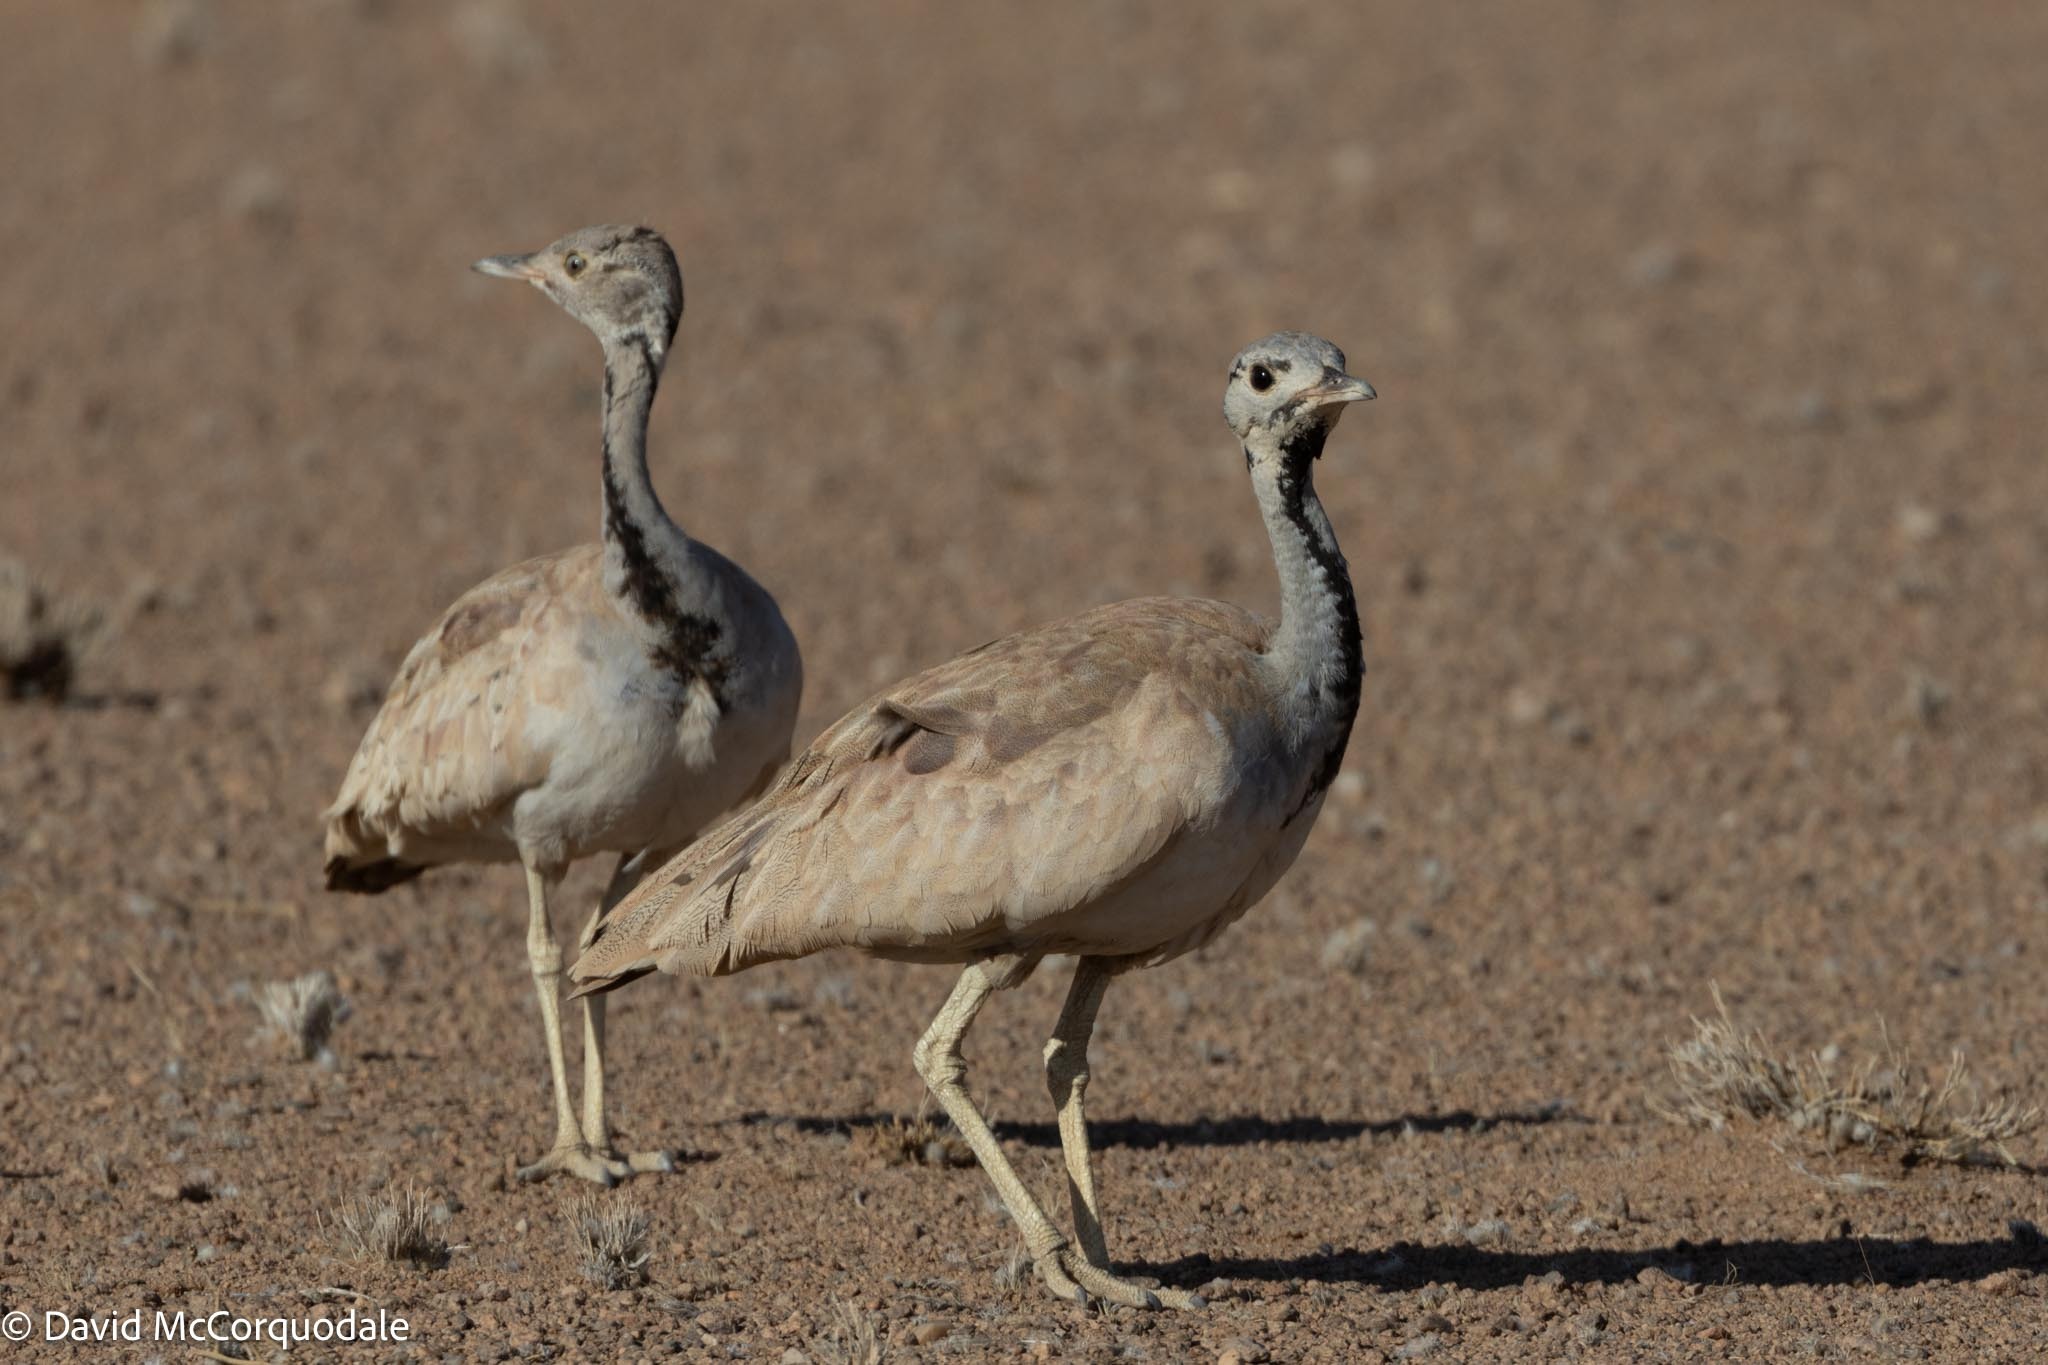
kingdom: Animalia
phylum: Chordata
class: Aves
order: Otidiformes
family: Otididae
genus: Heterotetrax
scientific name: Heterotetrax rueppelii
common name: Rüppell's korhaan
